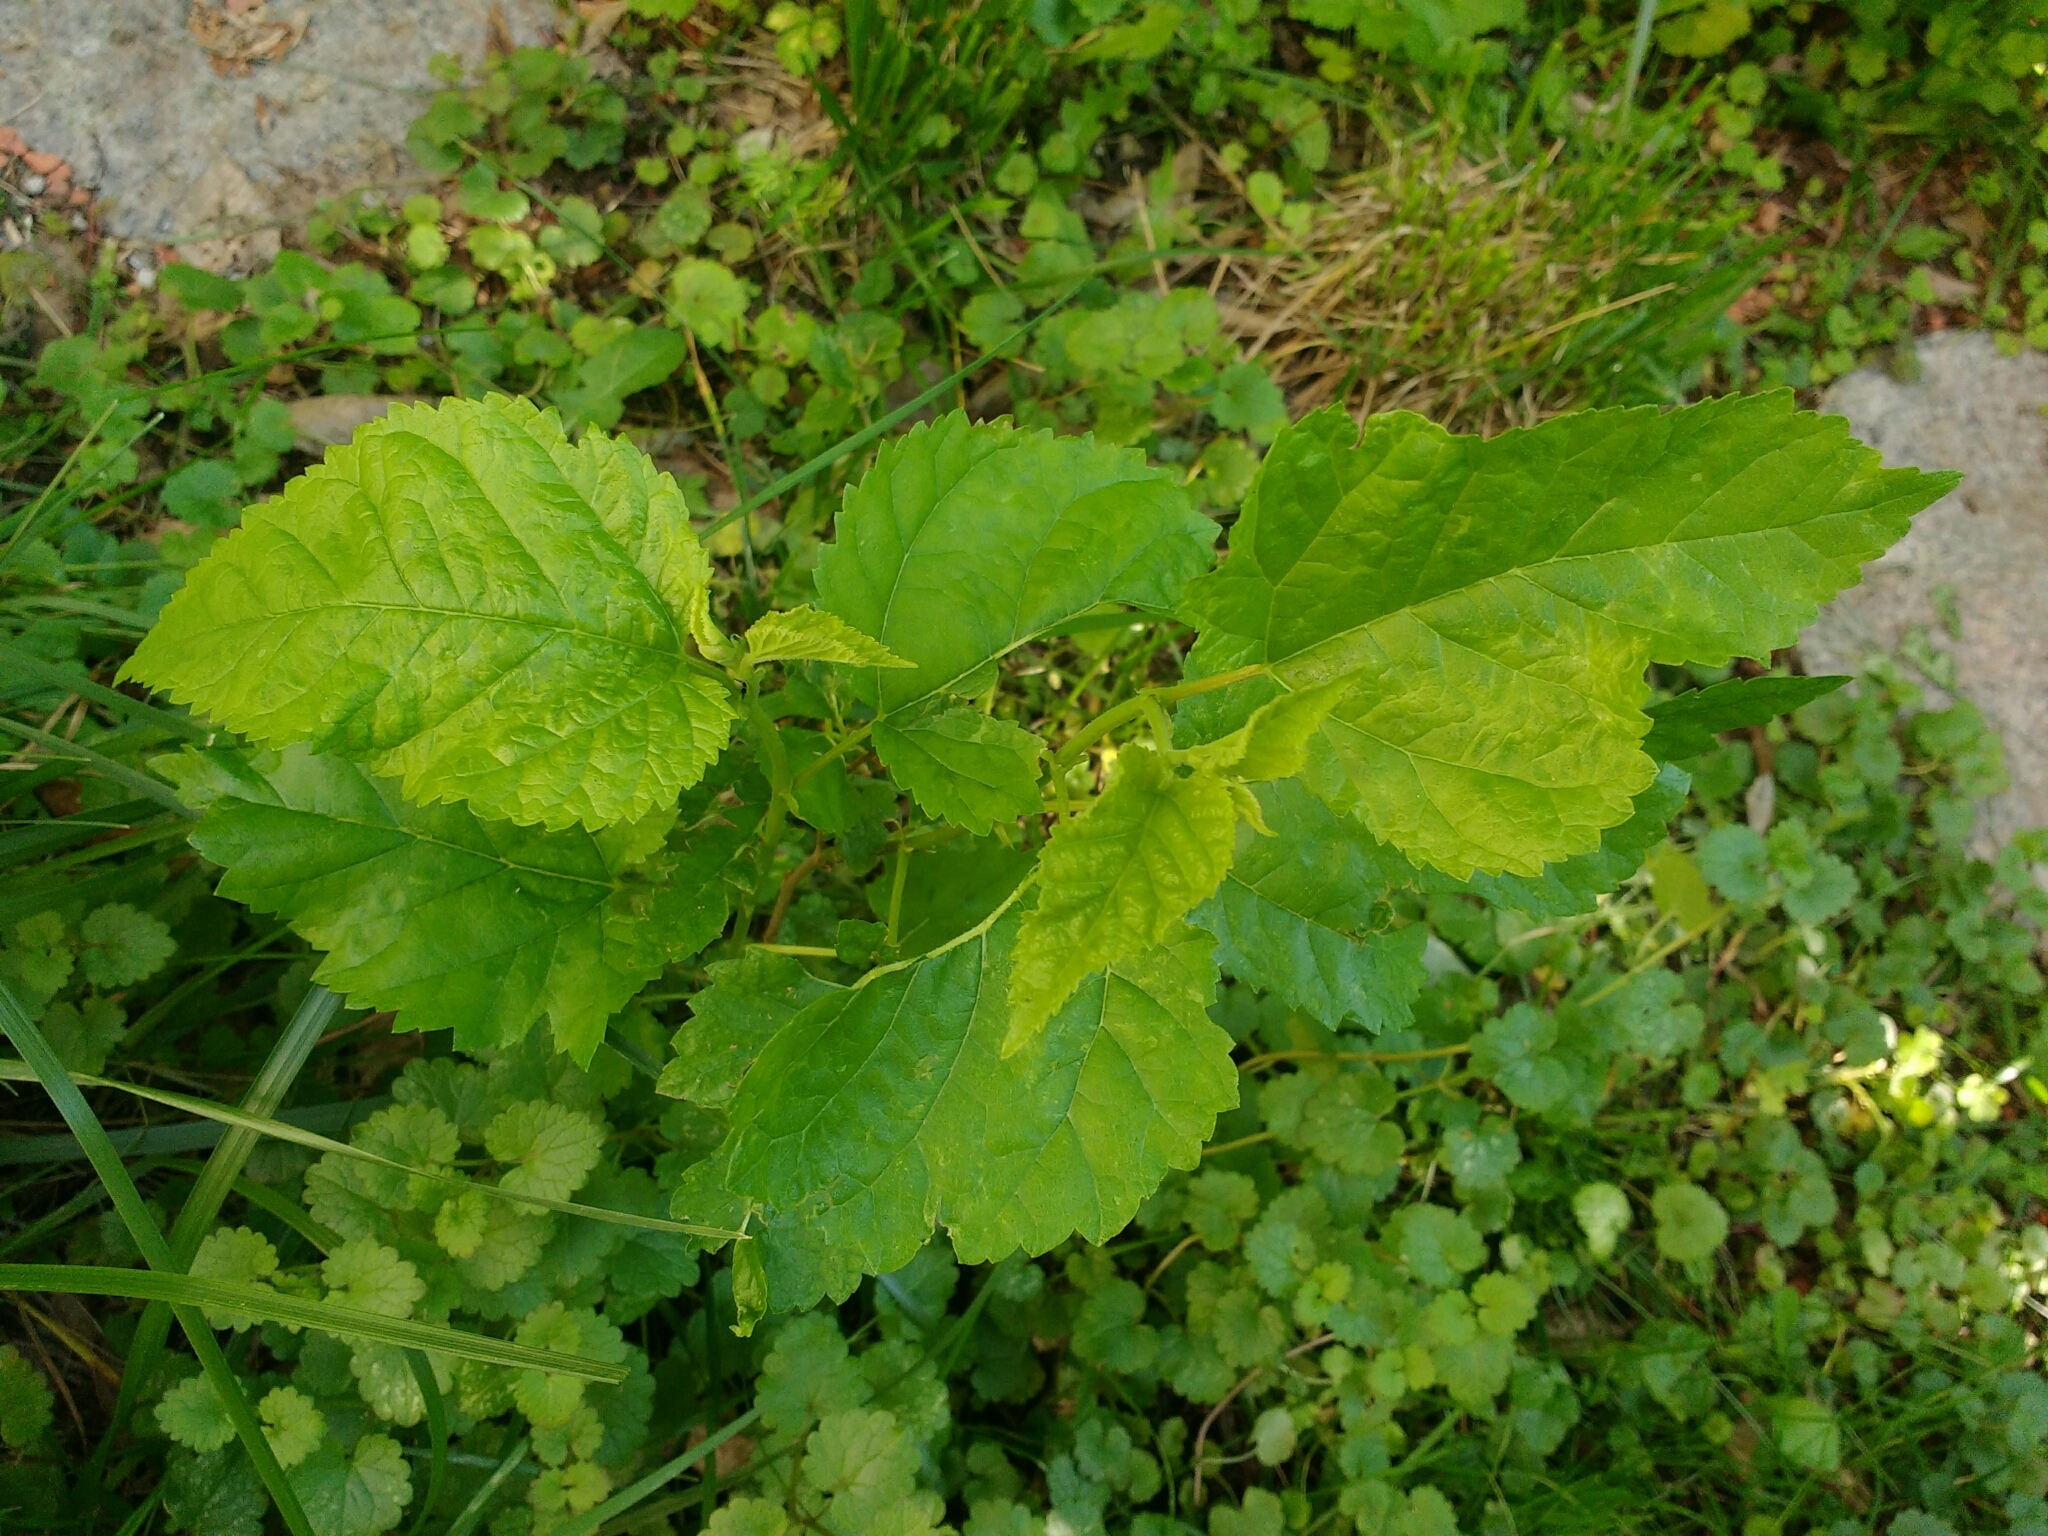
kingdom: Plantae
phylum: Tracheophyta
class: Magnoliopsida
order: Rosales
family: Moraceae
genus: Morus
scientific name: Morus alba
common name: White mulberry
